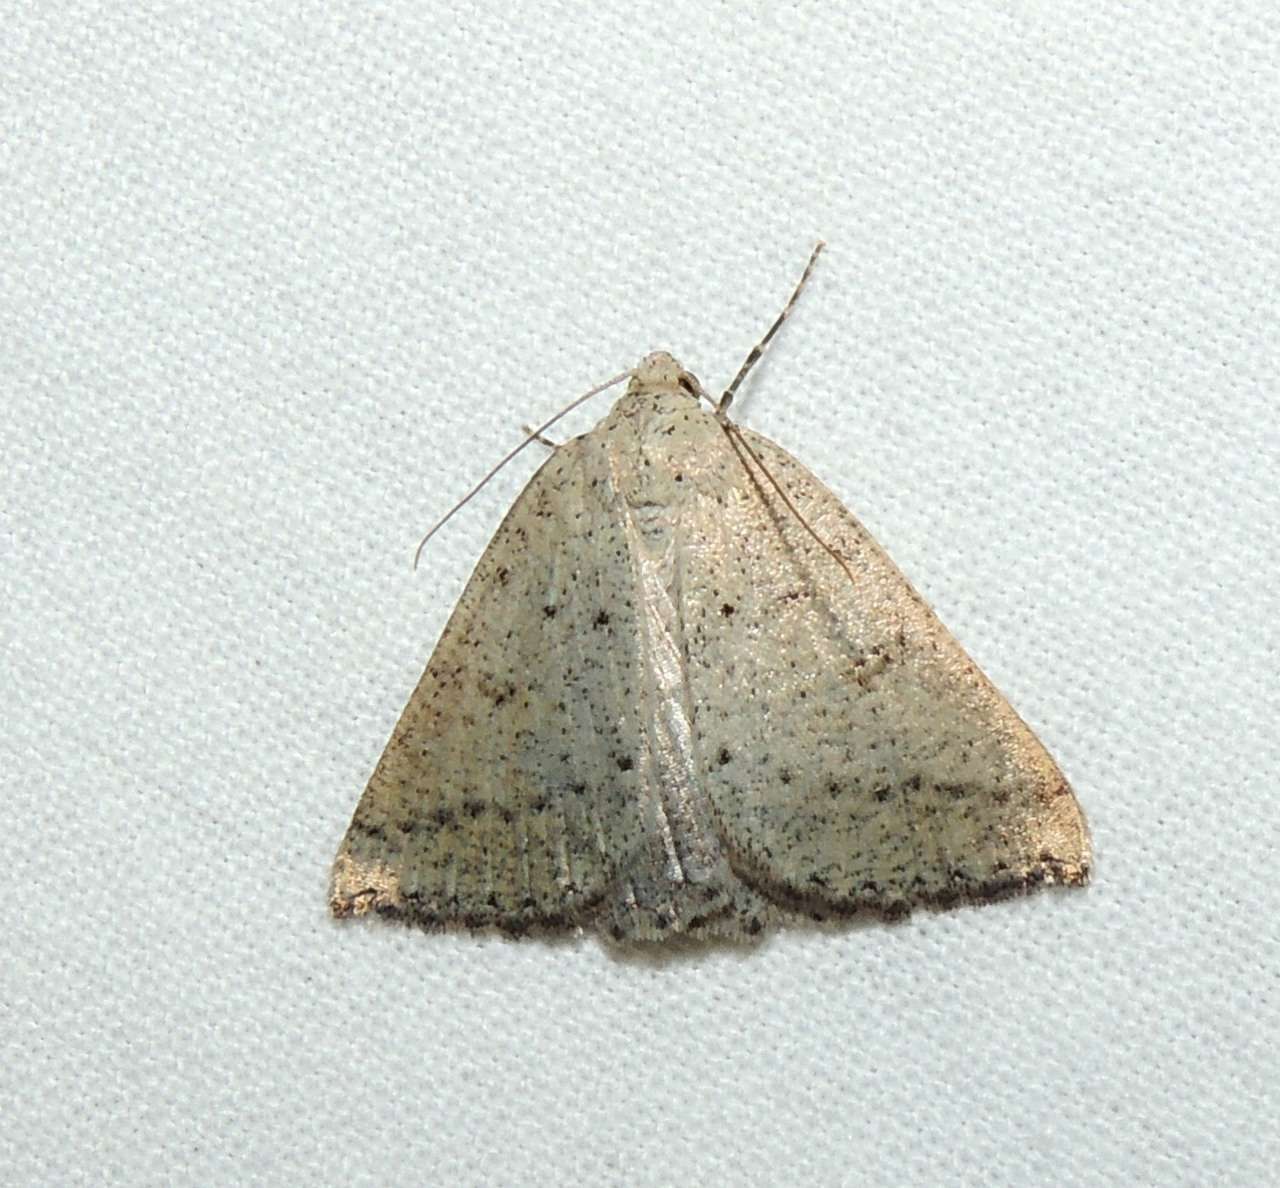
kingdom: Animalia
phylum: Arthropoda
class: Insecta
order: Lepidoptera
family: Geometridae
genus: Amelora
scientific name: Amelora zophopasta
